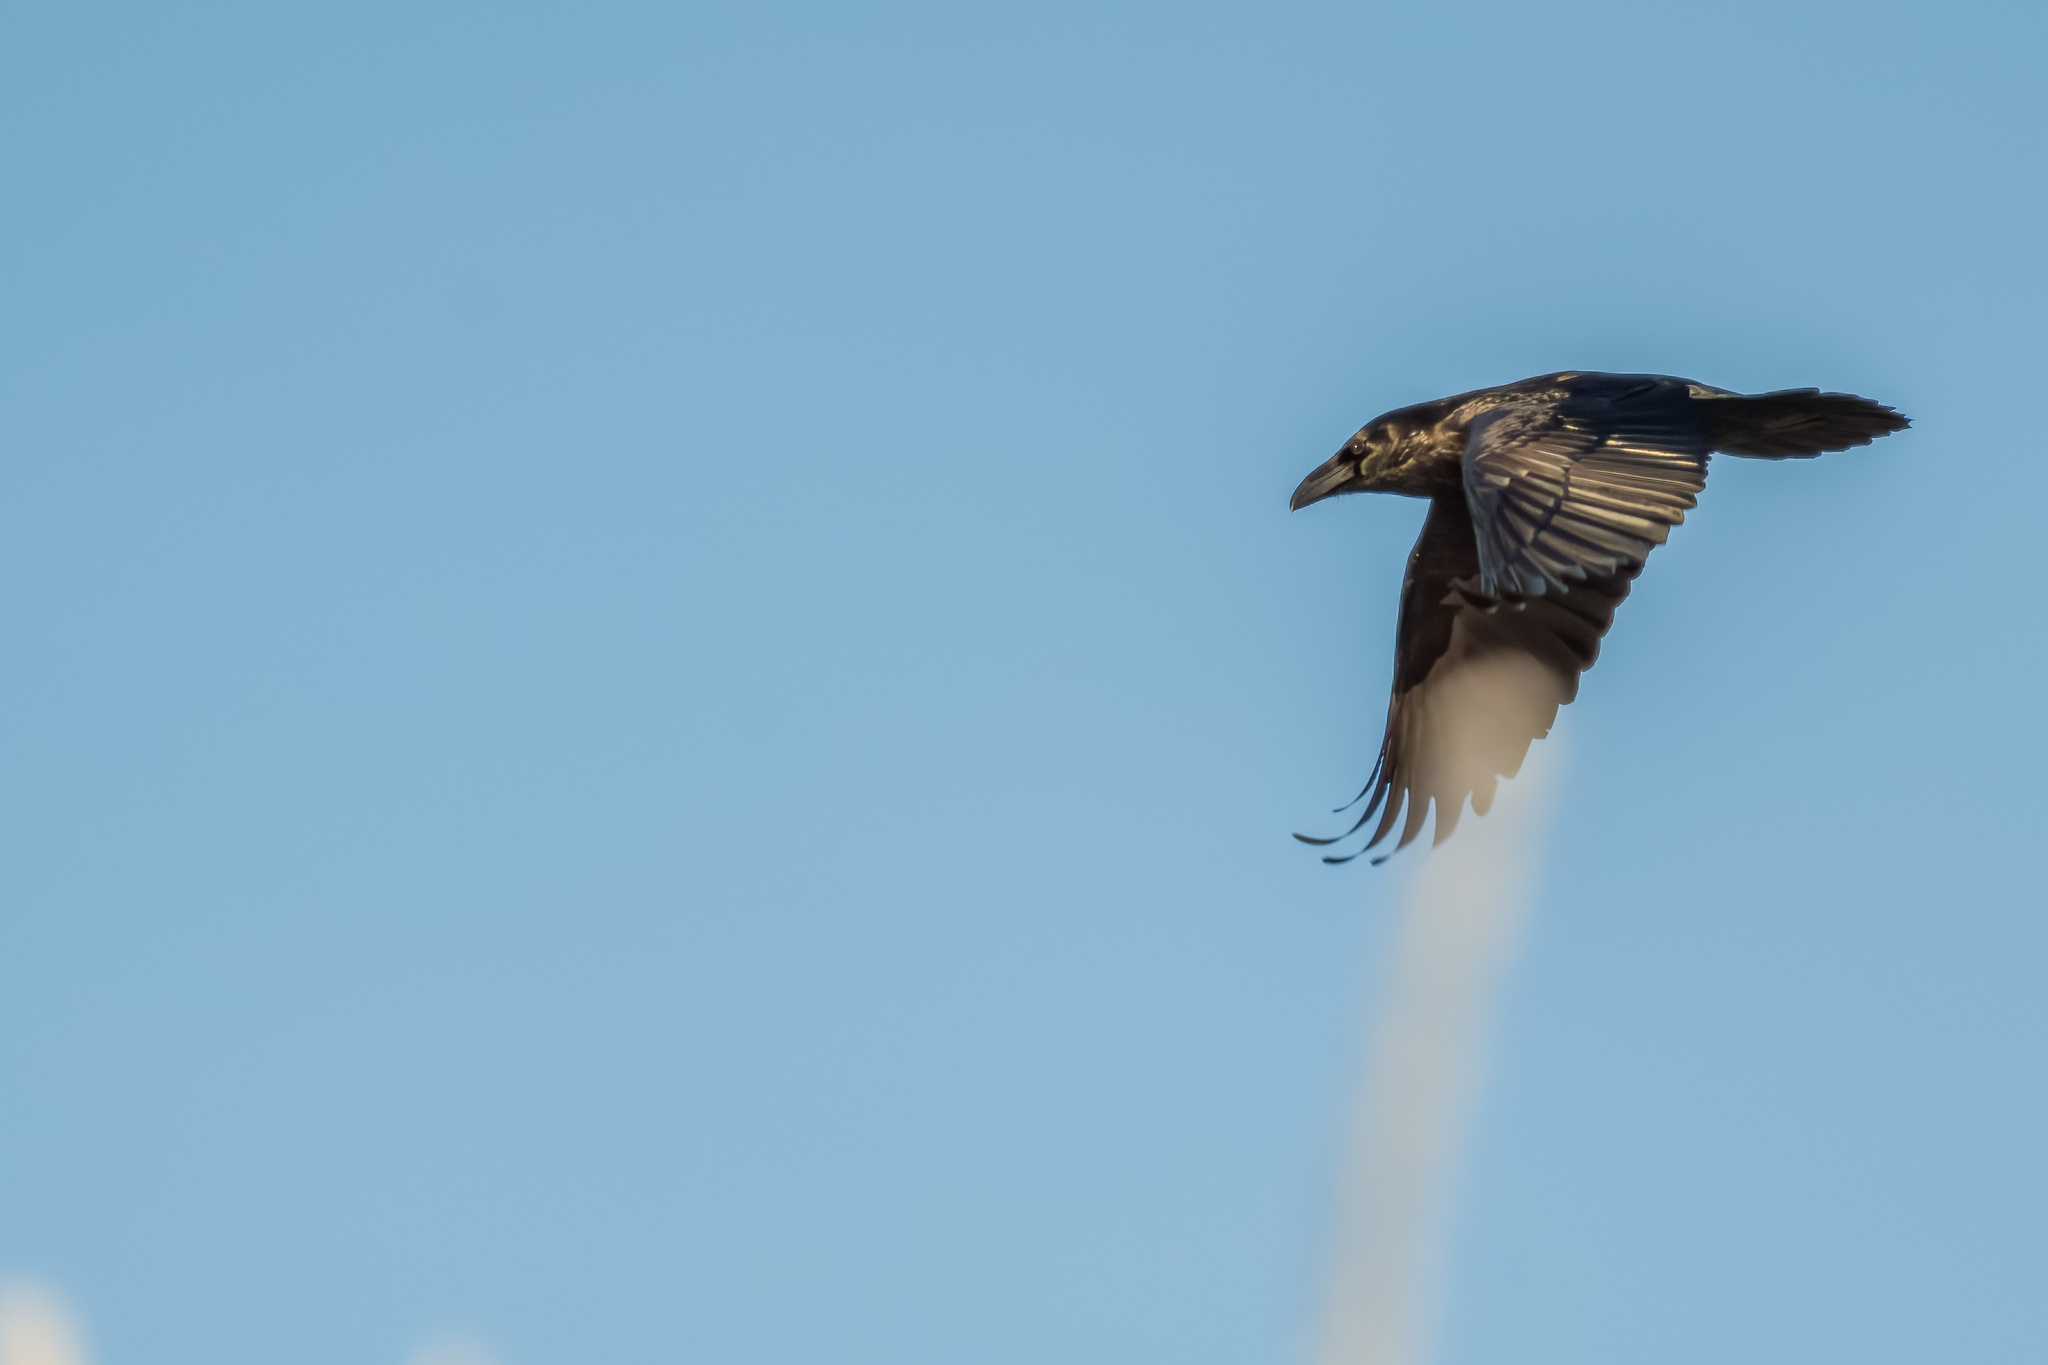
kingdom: Animalia
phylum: Chordata
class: Aves
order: Passeriformes
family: Corvidae
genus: Corvus
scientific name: Corvus corax
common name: Common raven
